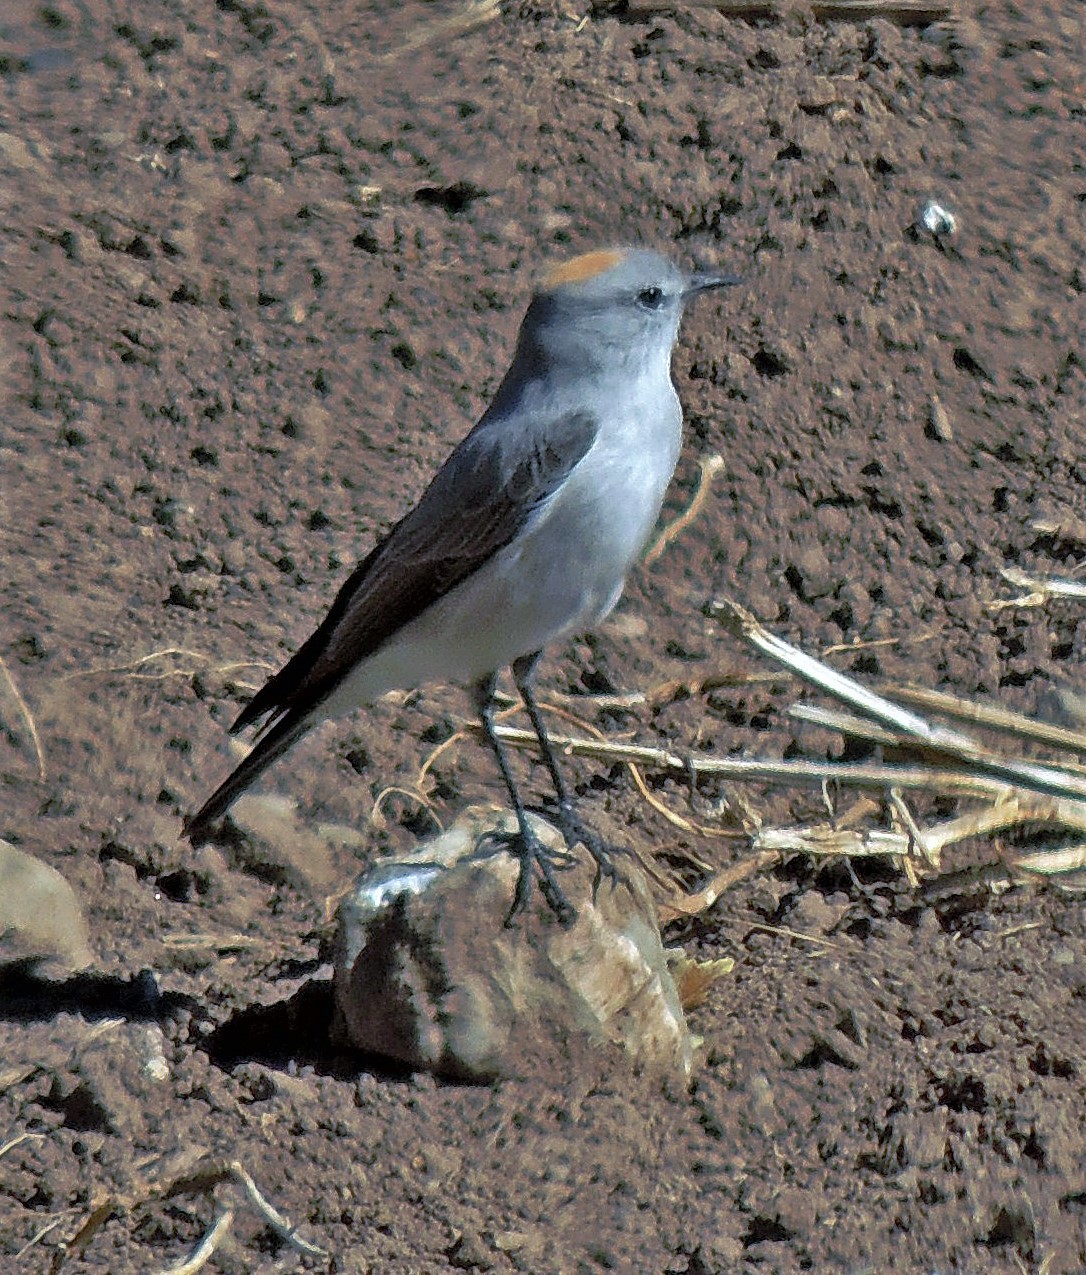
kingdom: Animalia
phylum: Chordata
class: Aves
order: Passeriformes
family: Tyrannidae
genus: Muscisaxicola
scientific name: Muscisaxicola rufivertex
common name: Rufous-naped ground tyrant
